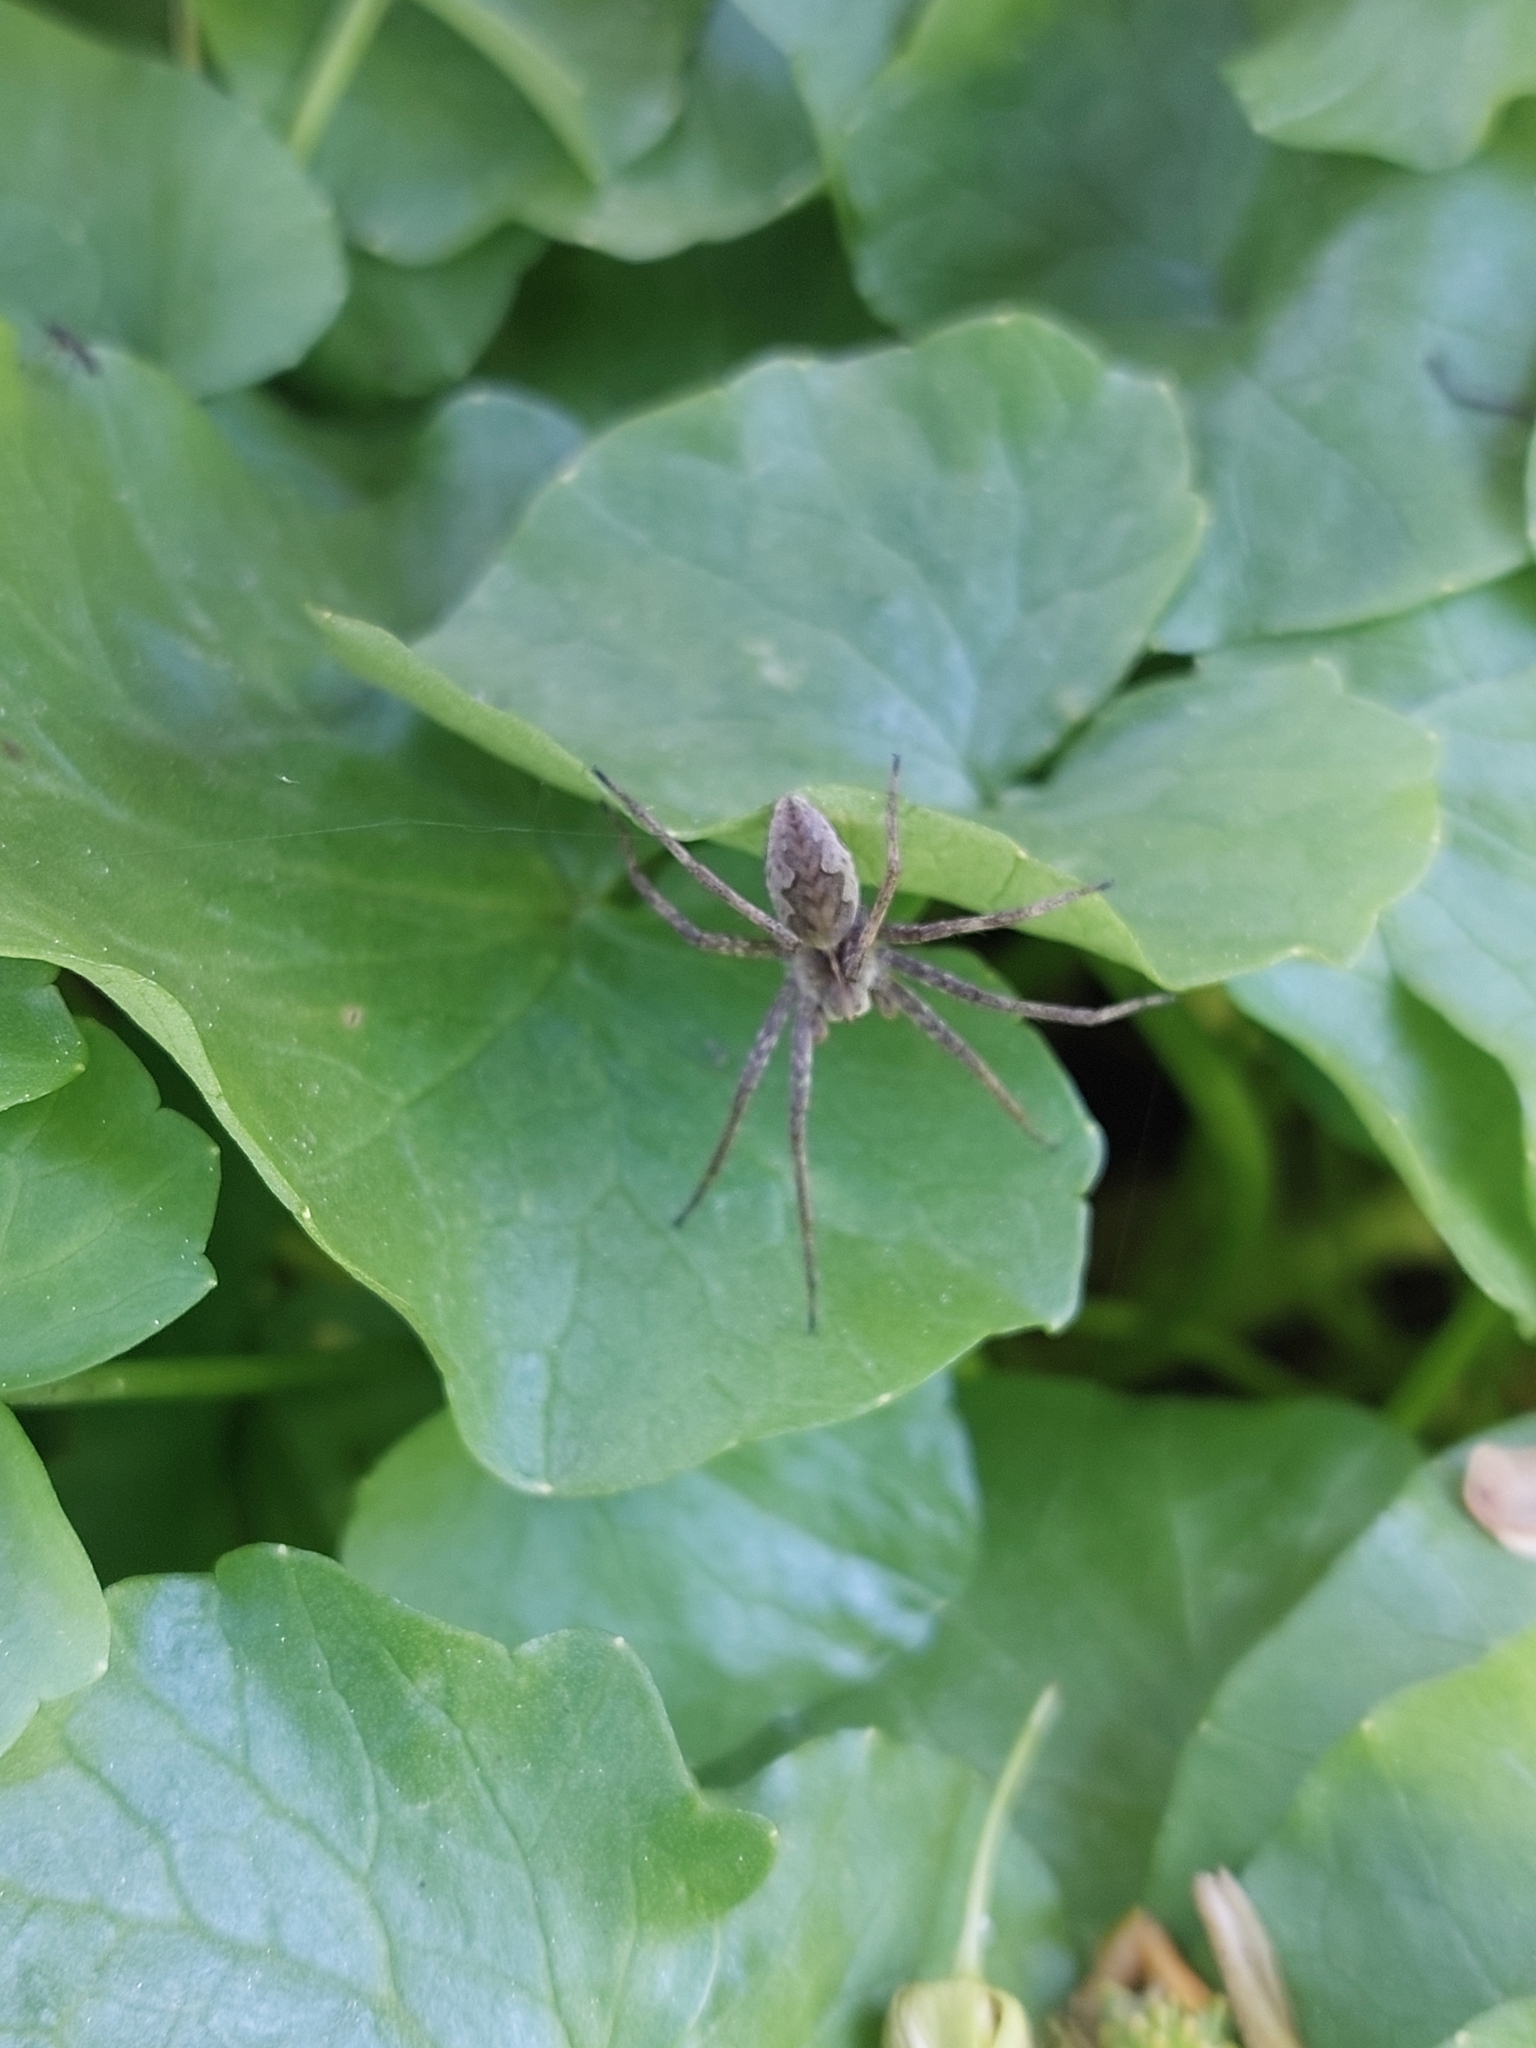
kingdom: Animalia
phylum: Arthropoda
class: Arachnida
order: Araneae
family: Pisauridae
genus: Pisaura
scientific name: Pisaura
